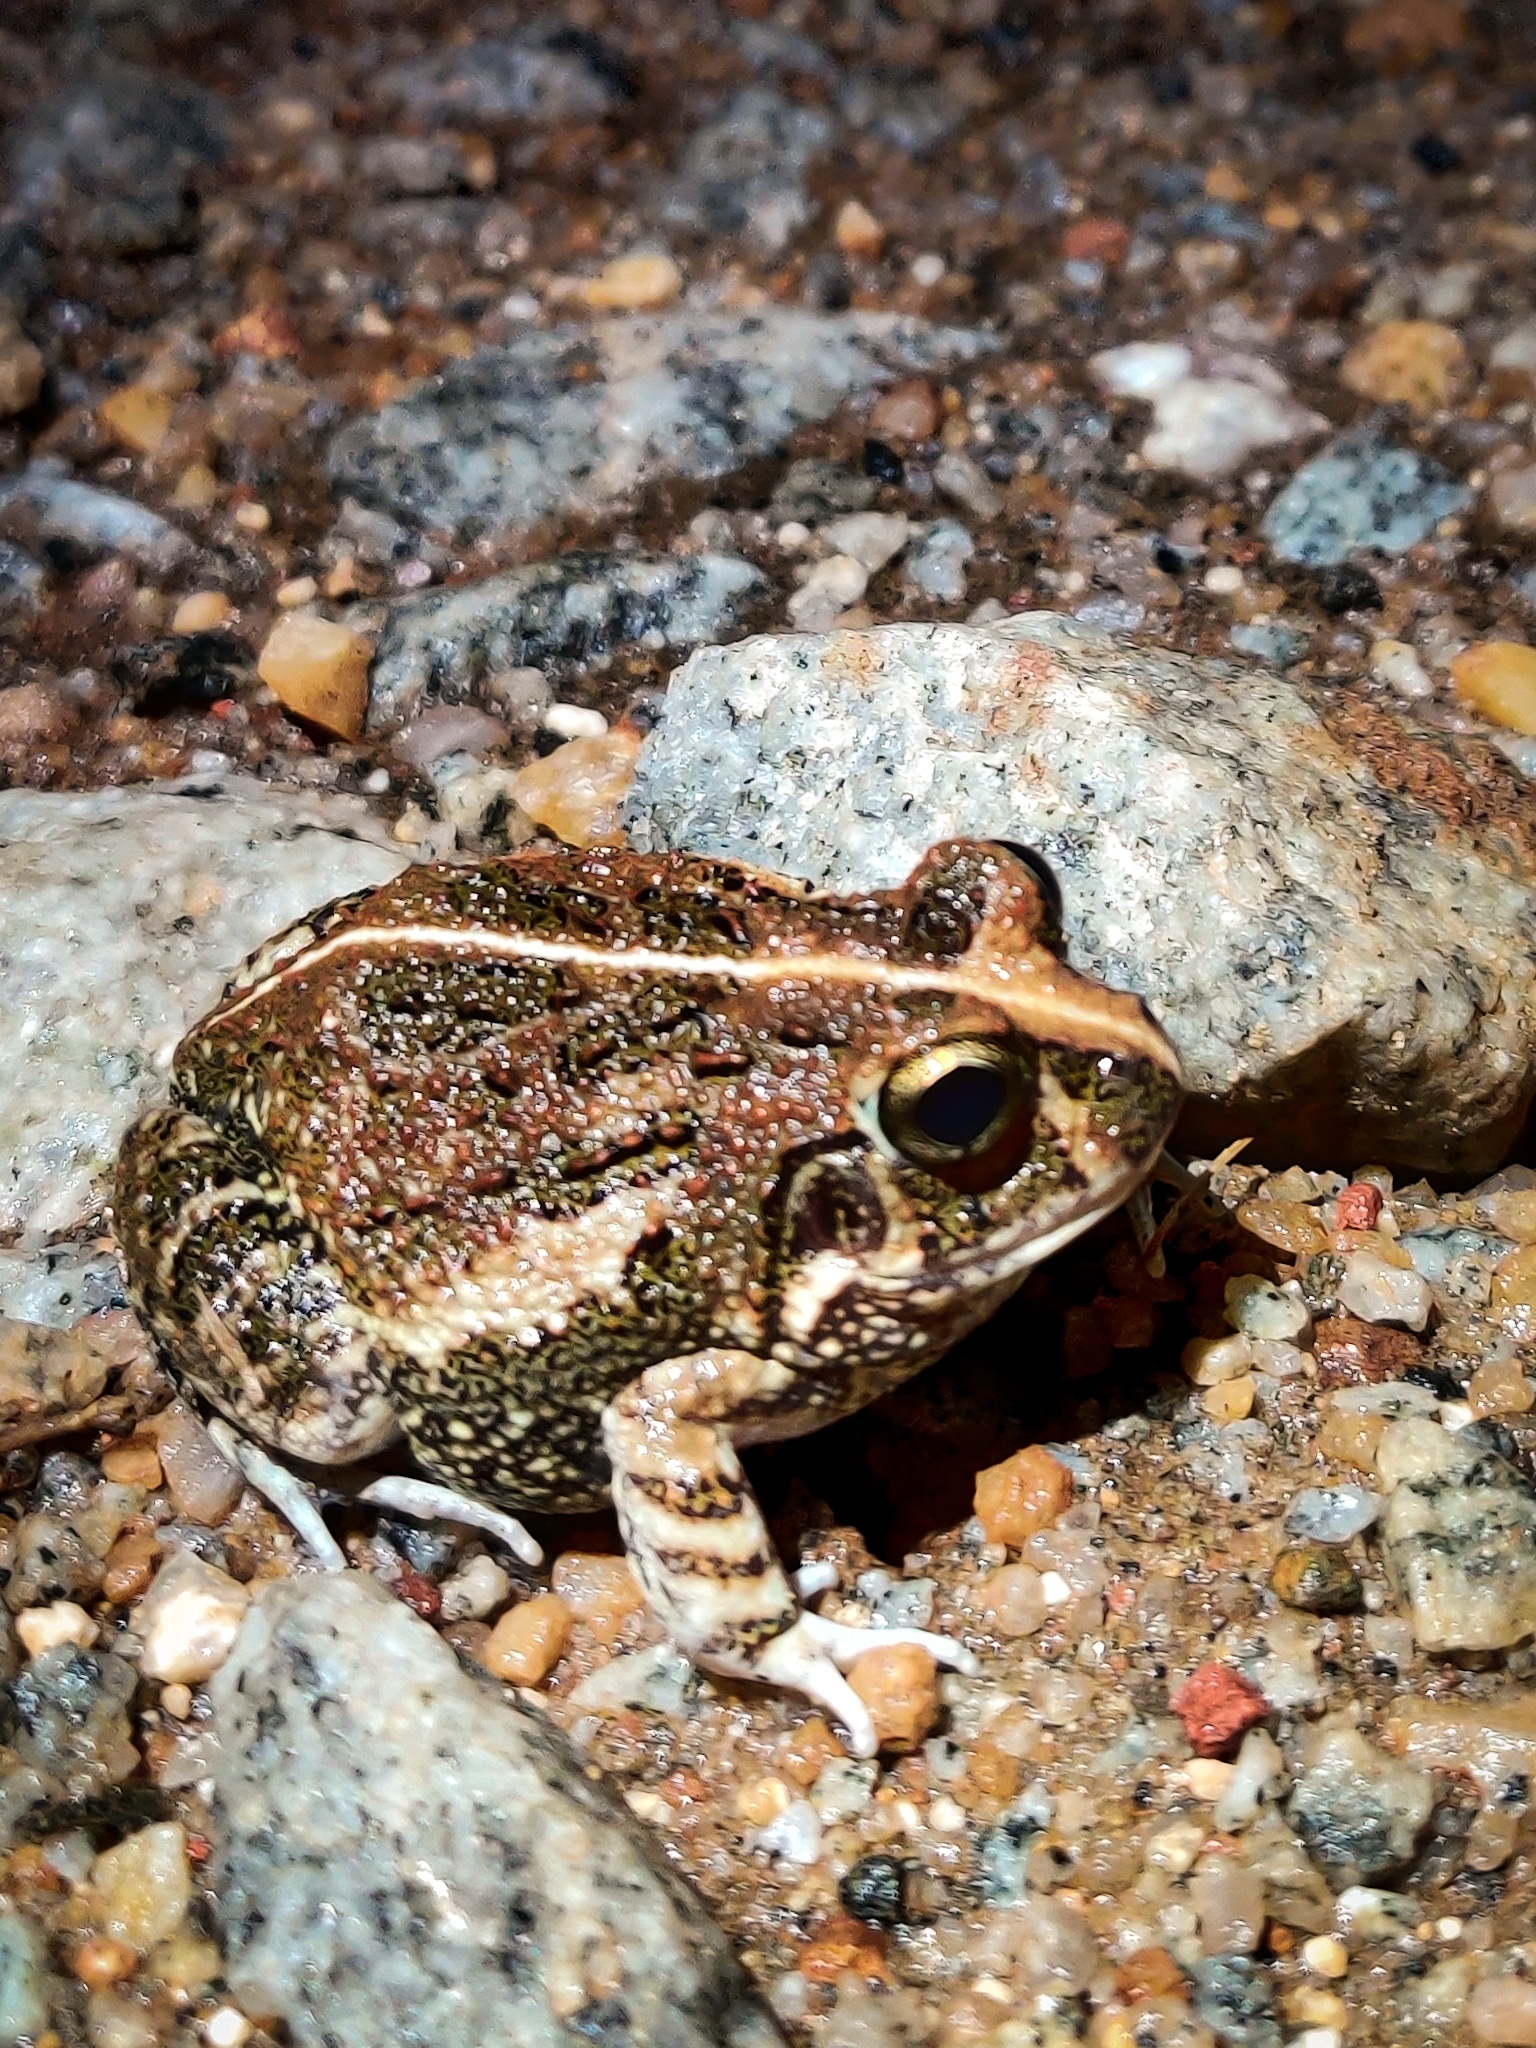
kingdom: Animalia
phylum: Chordata
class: Amphibia
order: Anura
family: Dicroglossidae
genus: Sphaerotheca
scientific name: Sphaerotheca bengaluru
